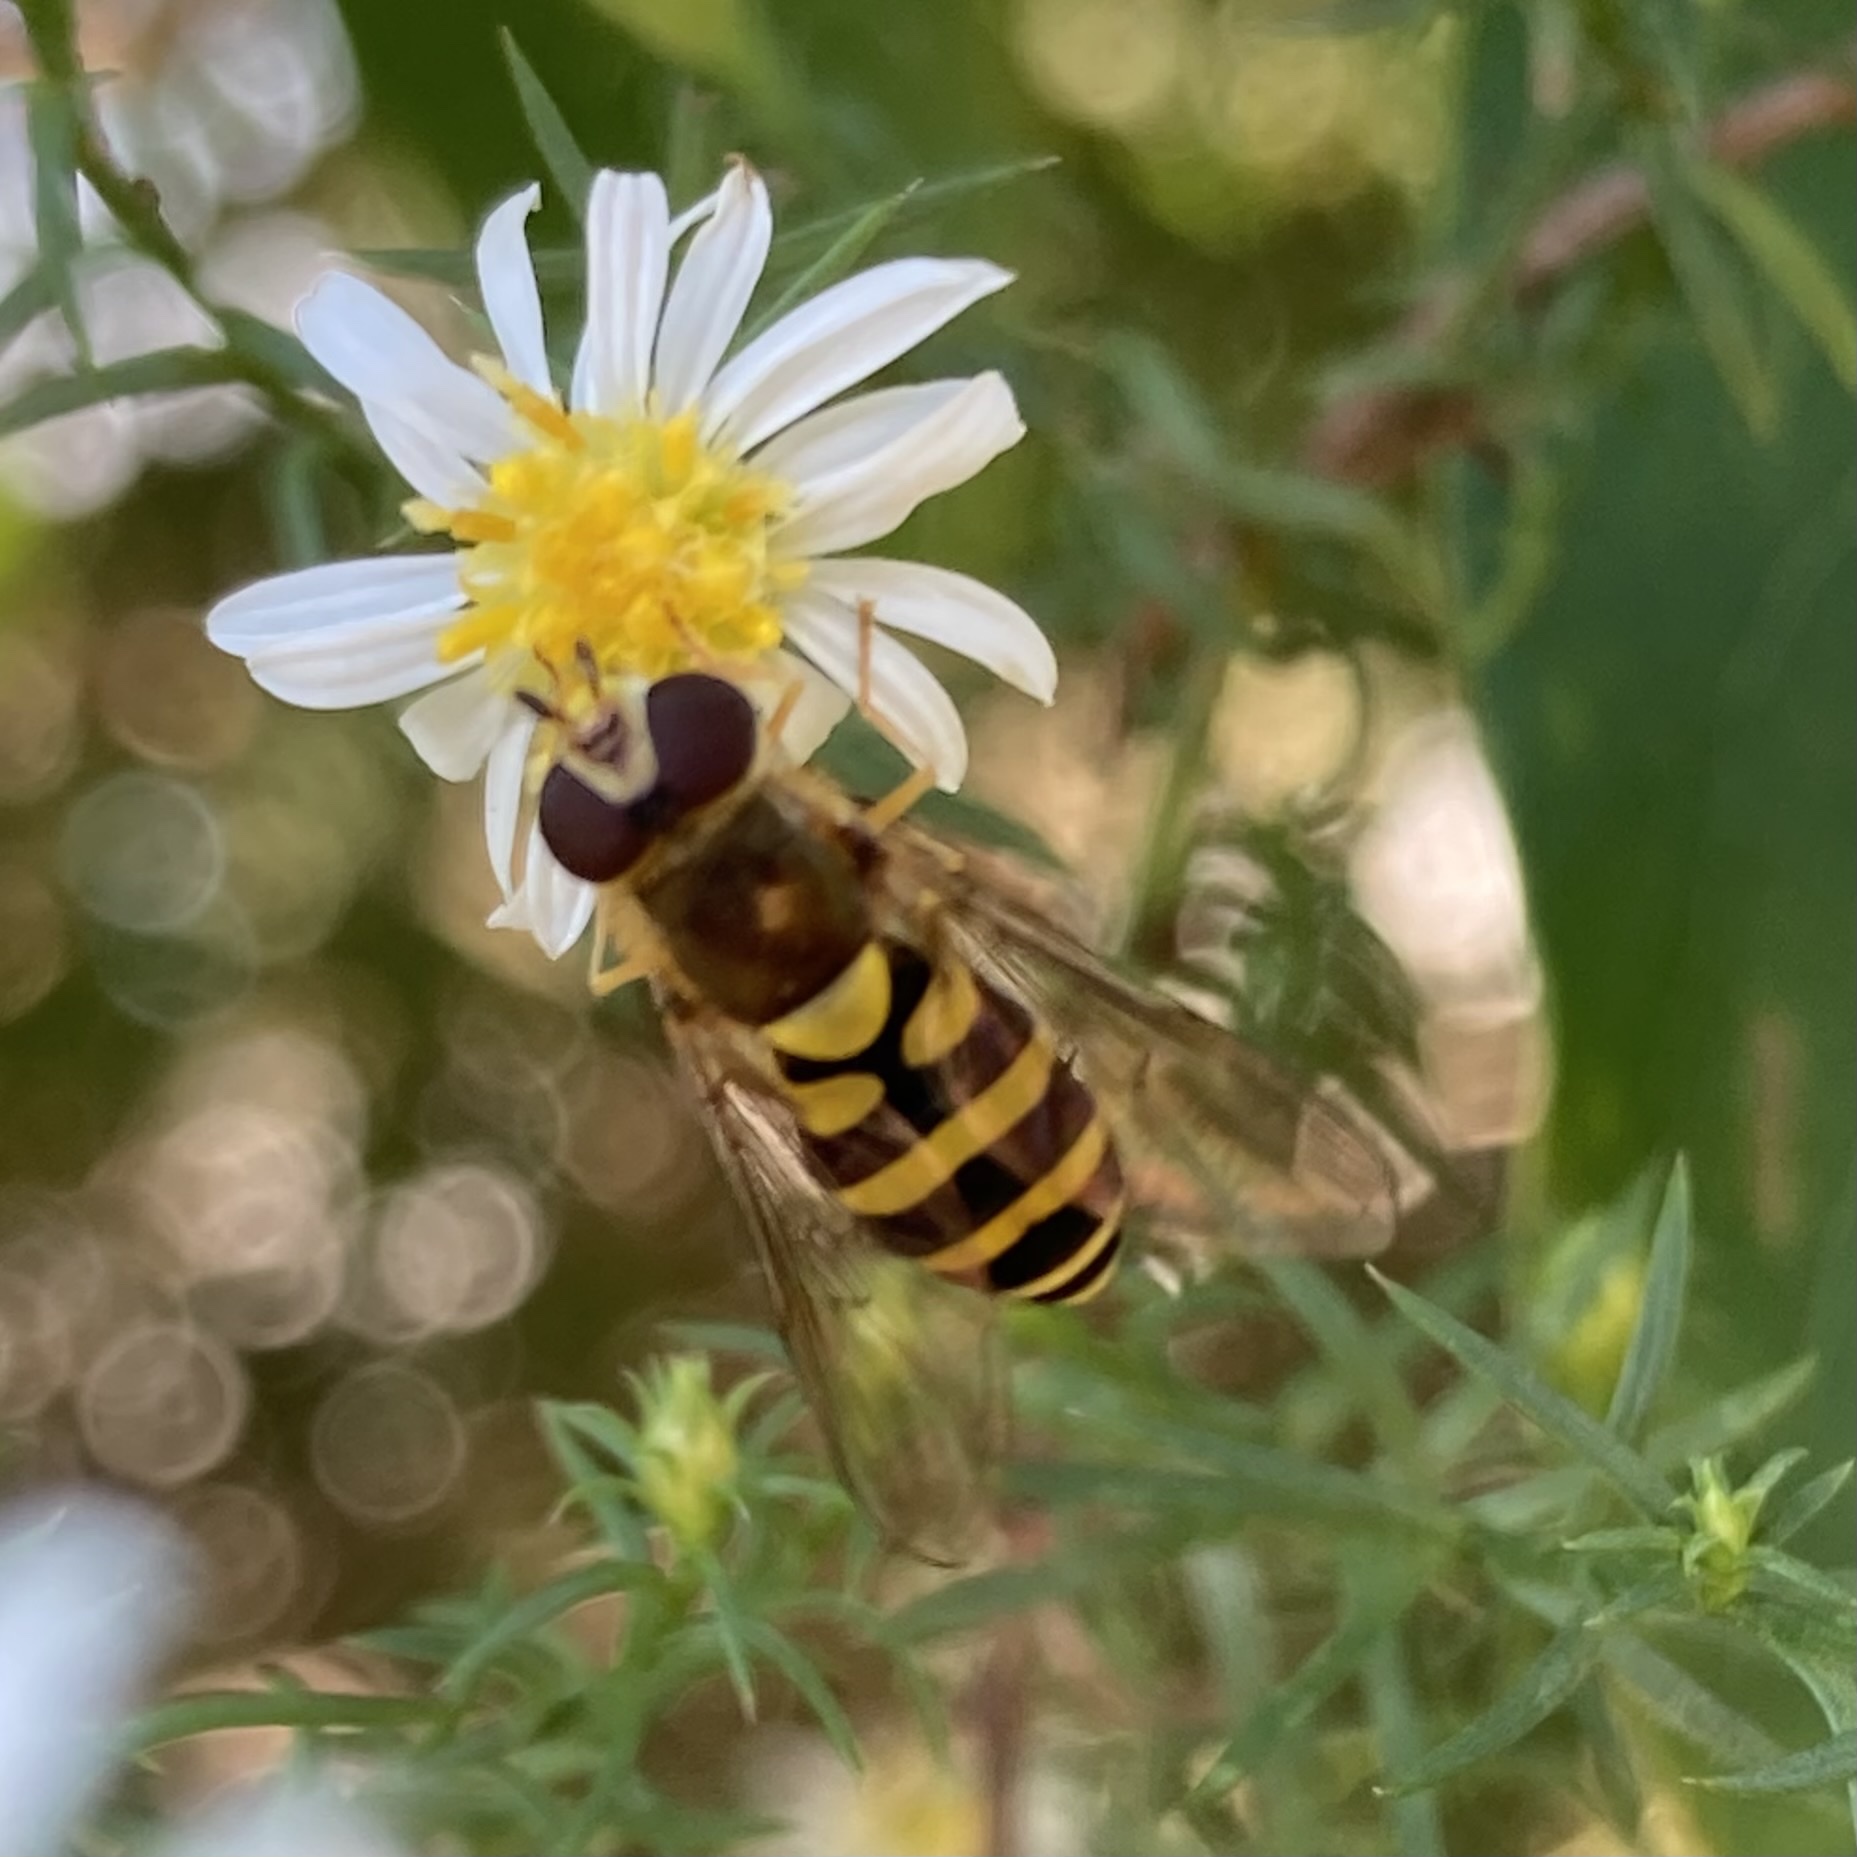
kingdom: Animalia
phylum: Arthropoda
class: Insecta
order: Diptera
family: Syrphidae
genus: Syrphus
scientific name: Syrphus
